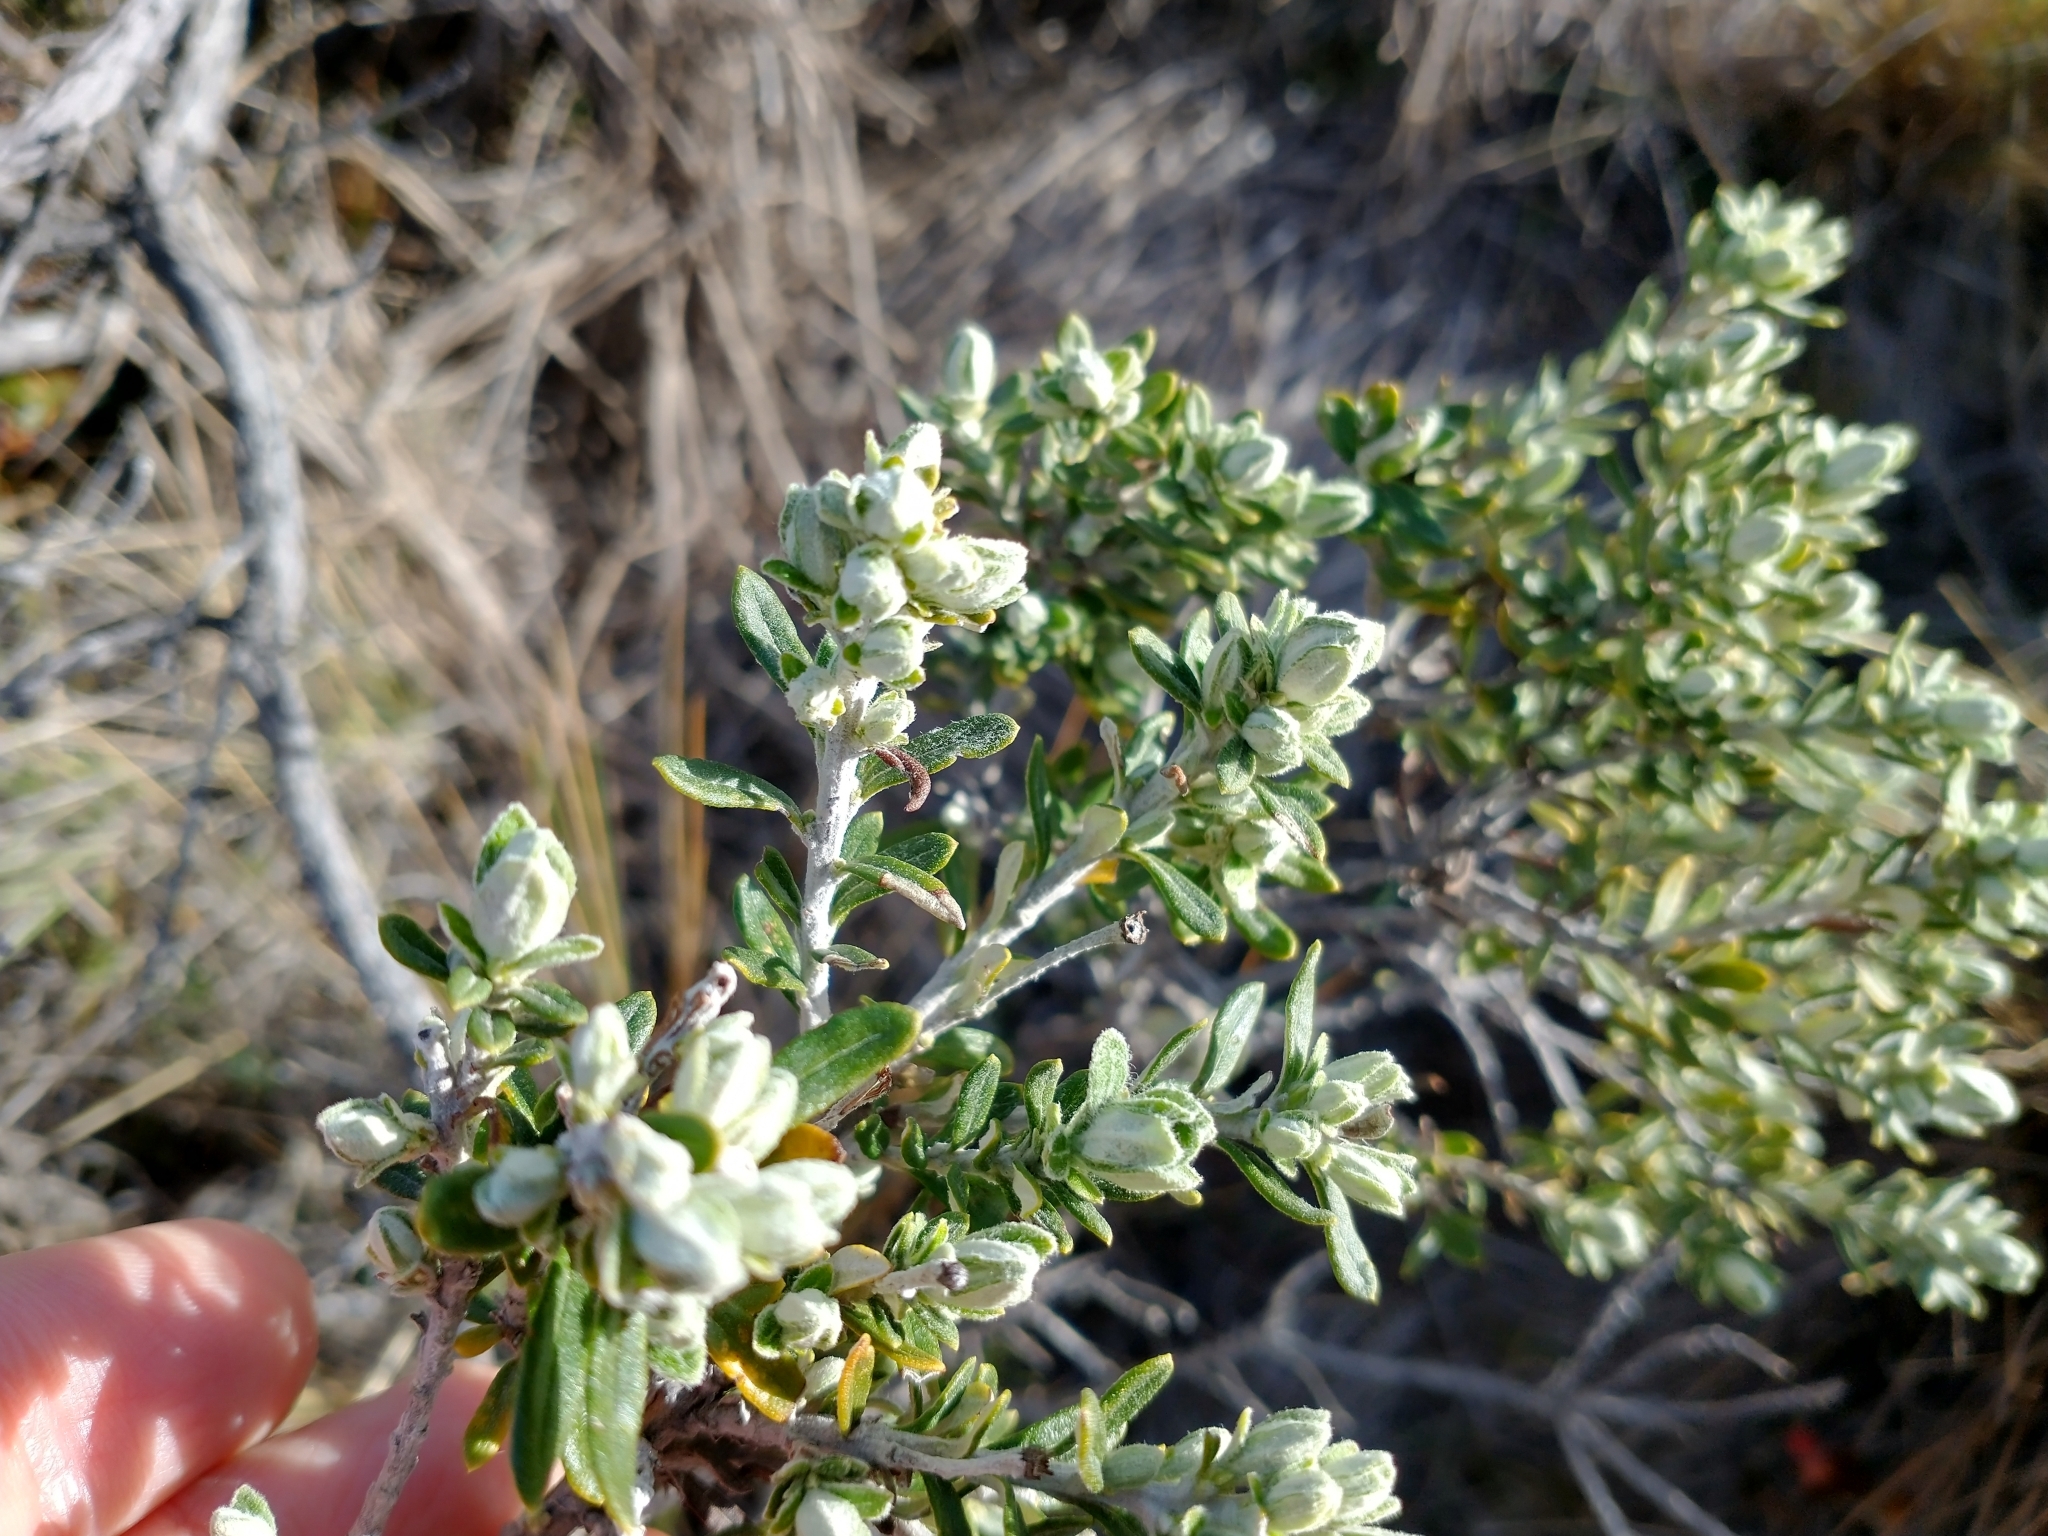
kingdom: Plantae
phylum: Tracheophyta
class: Magnoliopsida
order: Asterales
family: Asteraceae
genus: Chiliotrichum
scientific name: Chiliotrichum diffusum
